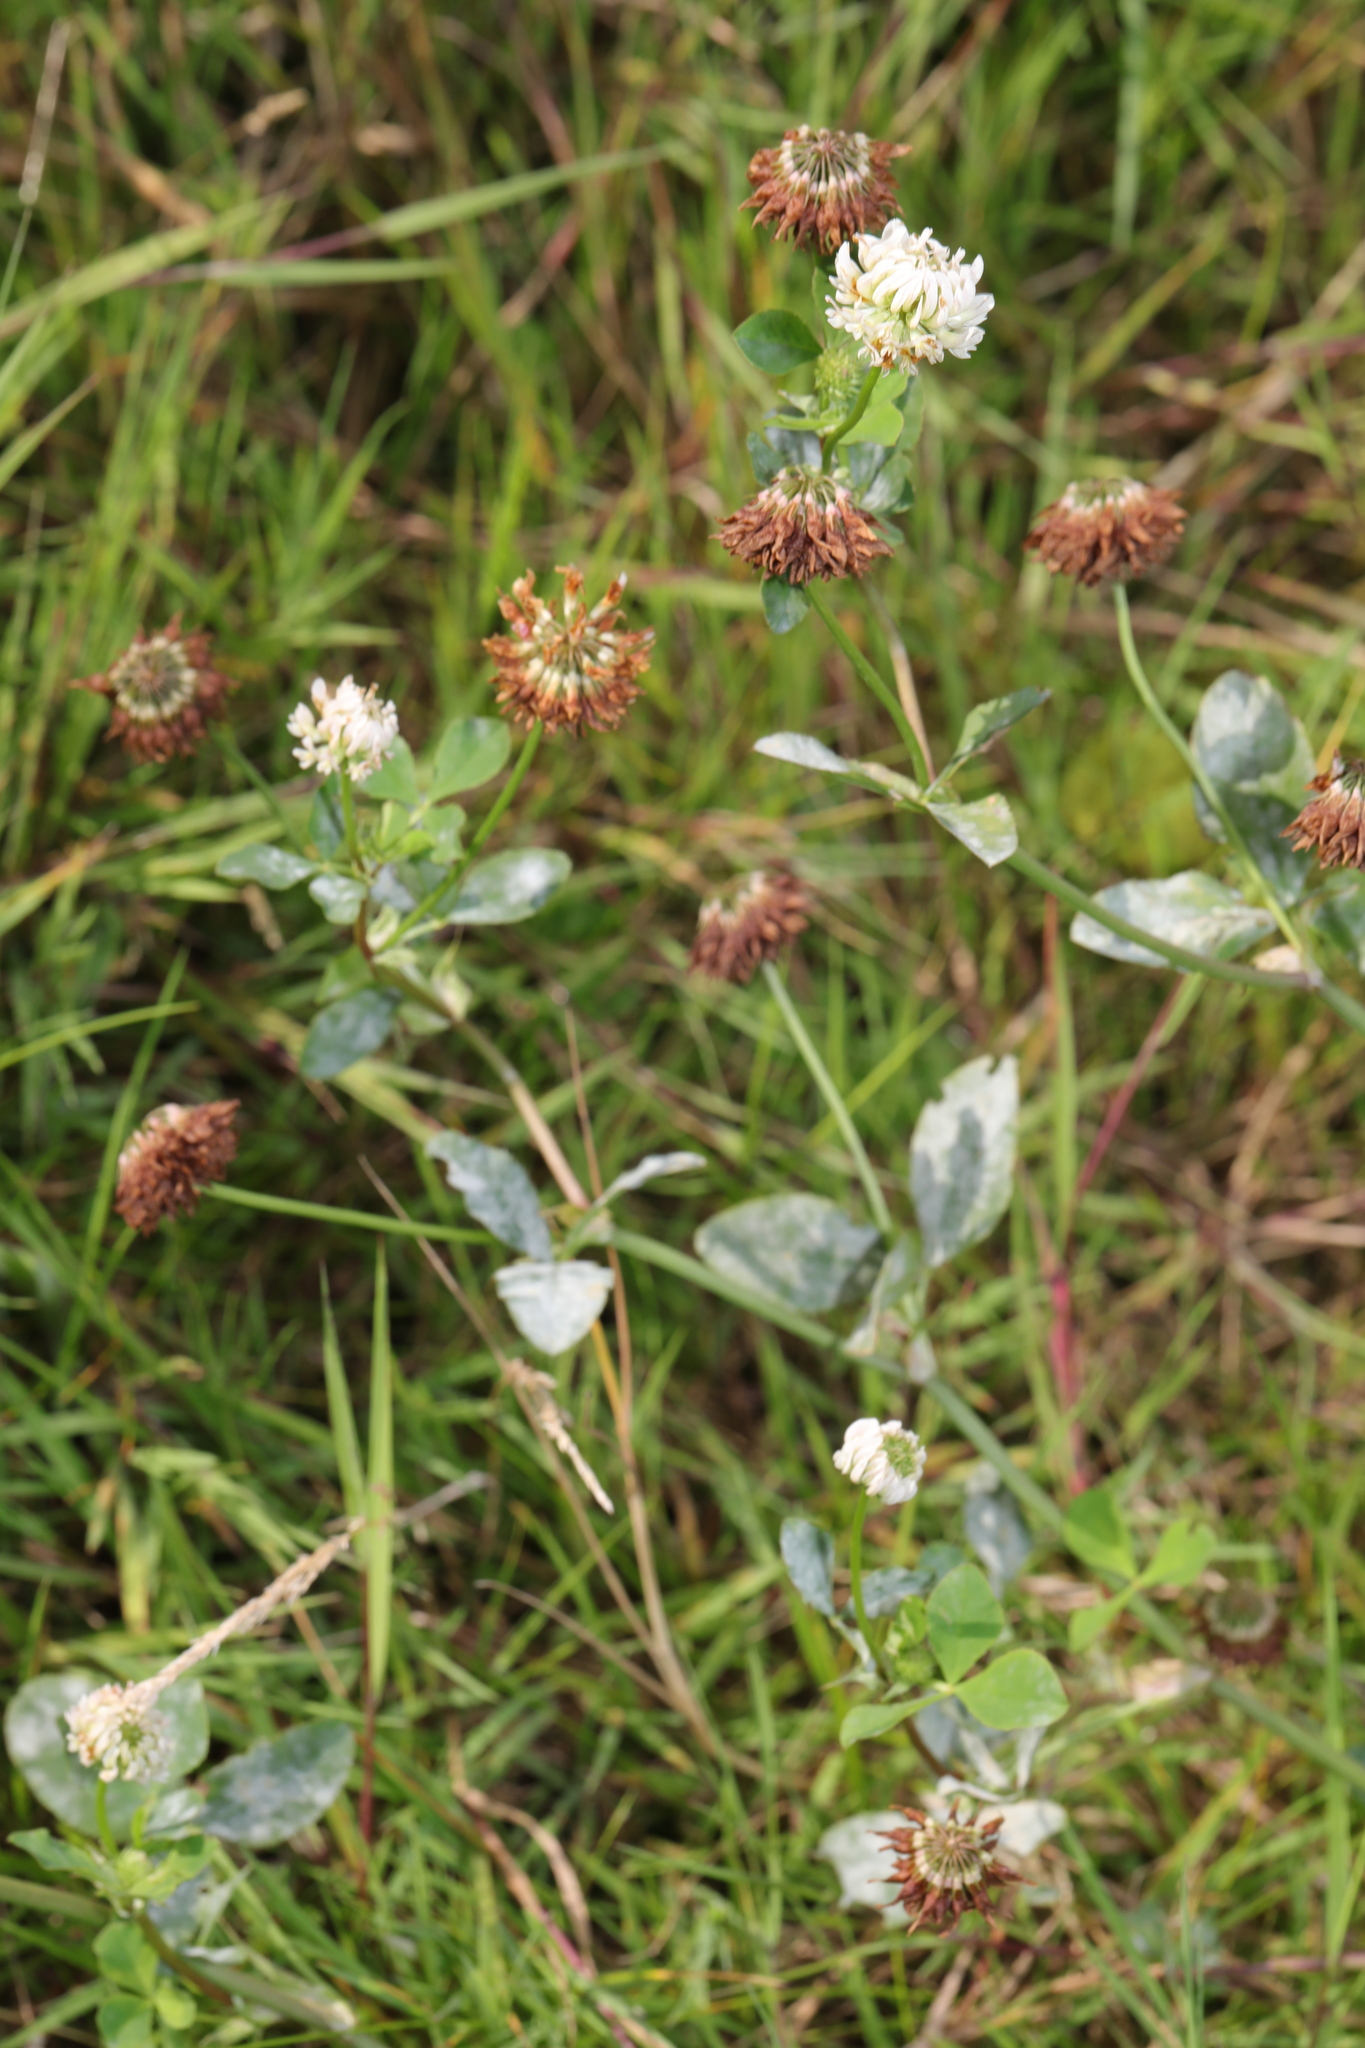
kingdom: Plantae
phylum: Tracheophyta
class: Magnoliopsida
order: Fabales
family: Fabaceae
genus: Trifolium
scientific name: Trifolium hybridum
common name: Alsike clover
